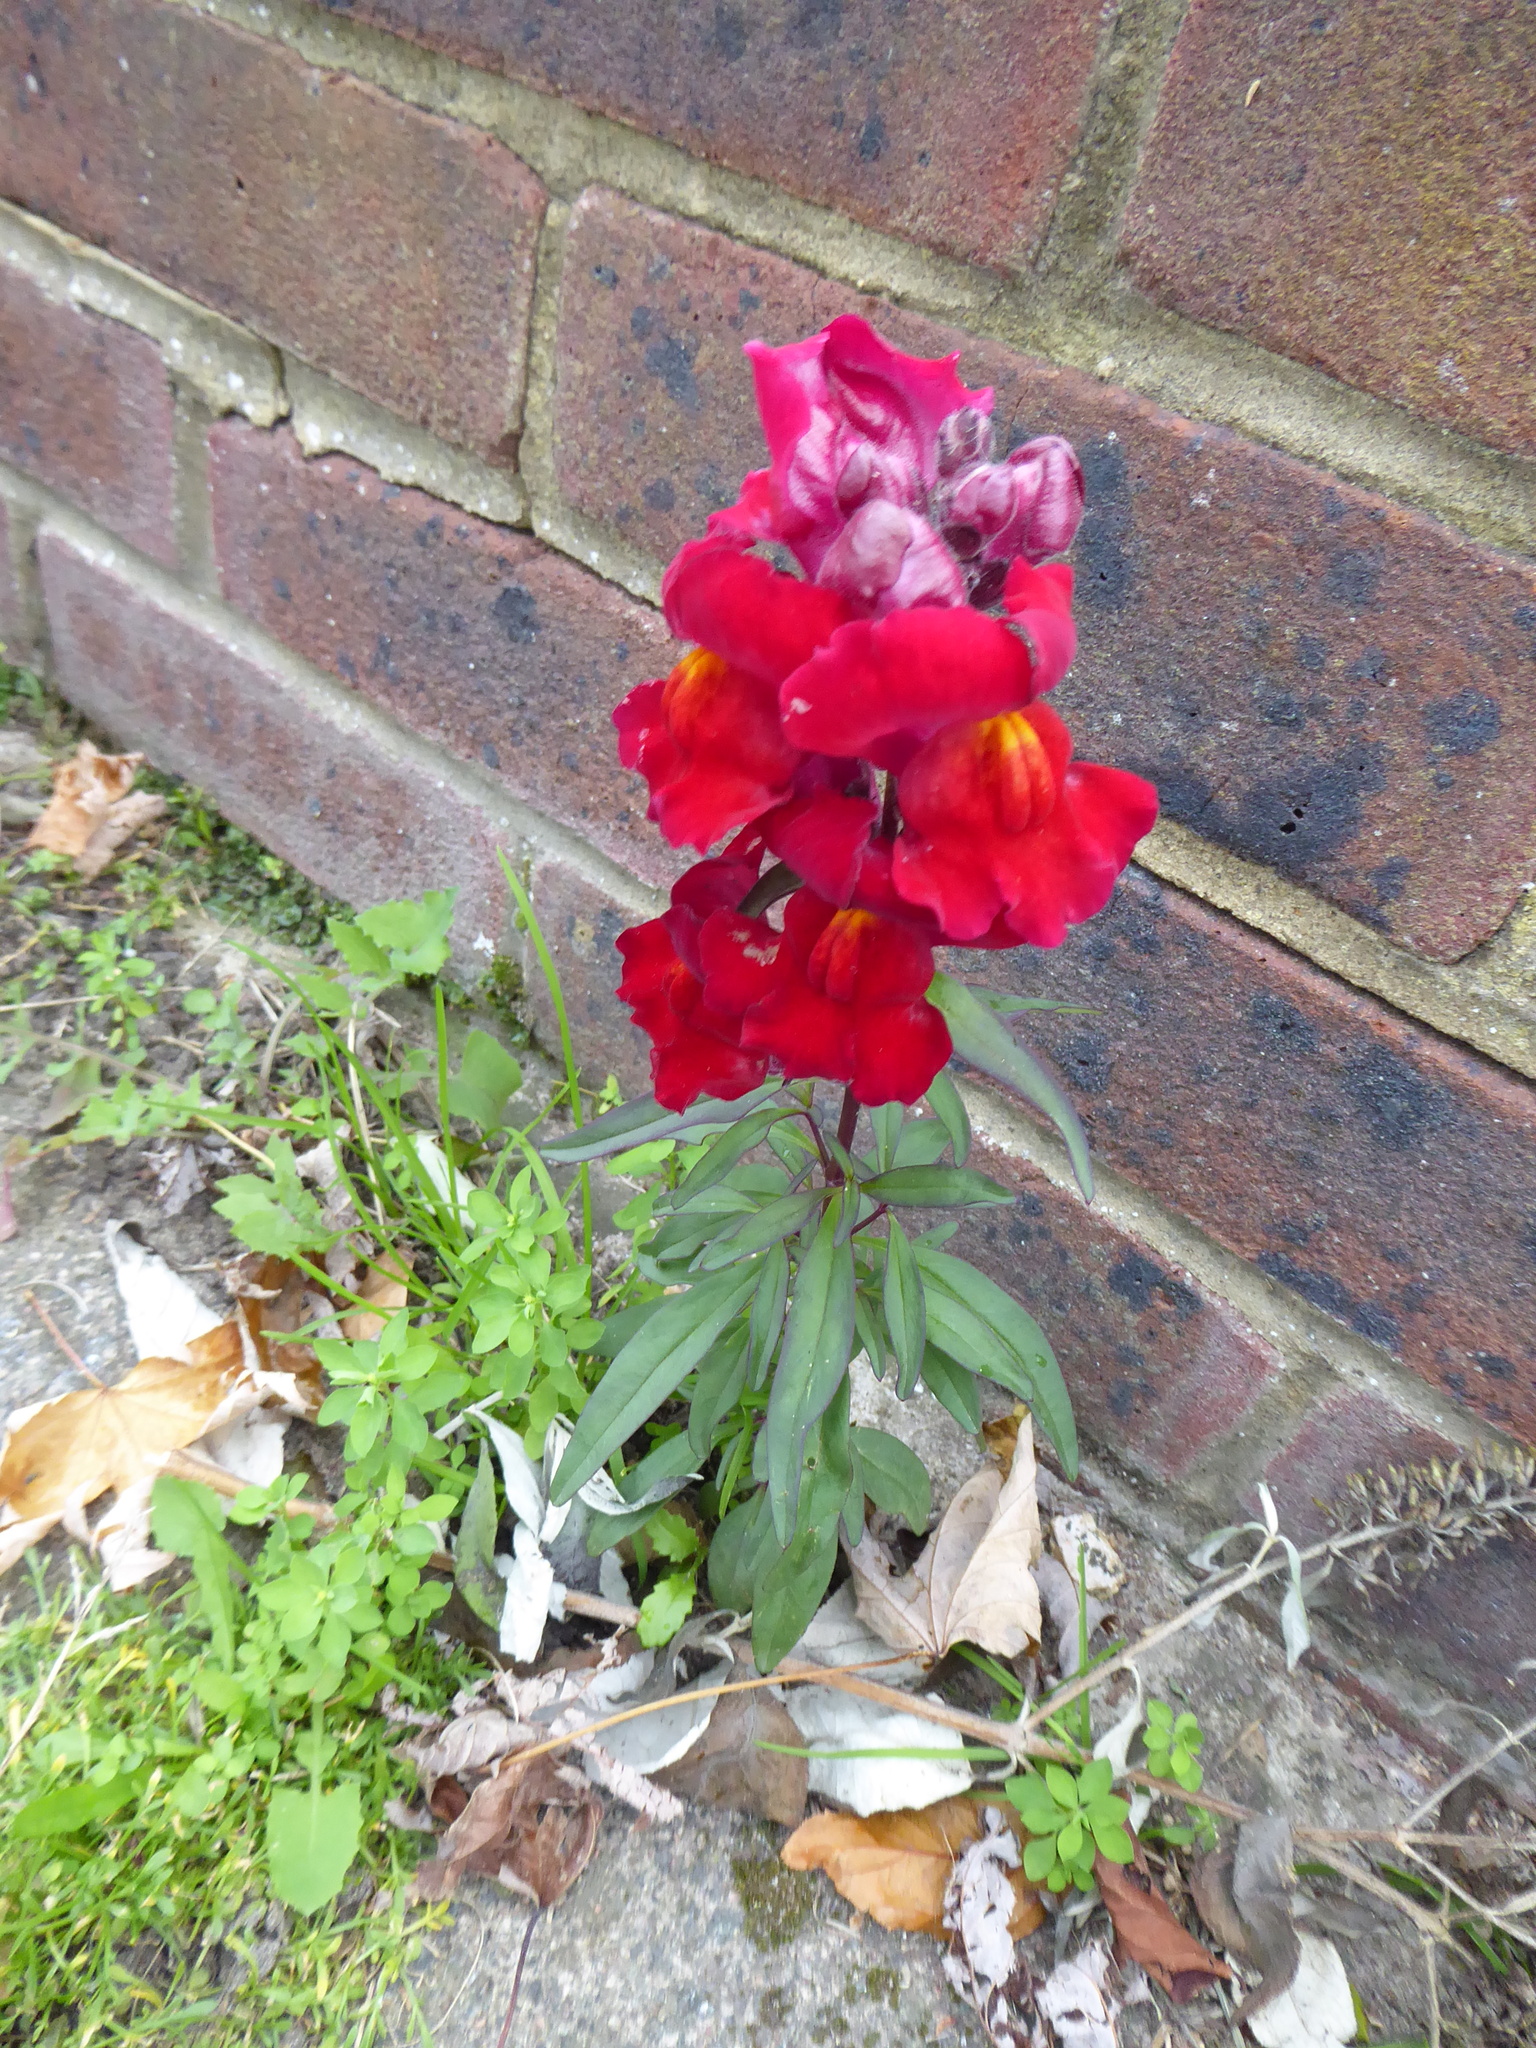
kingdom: Plantae
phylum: Tracheophyta
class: Magnoliopsida
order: Lamiales
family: Plantaginaceae
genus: Antirrhinum
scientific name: Antirrhinum majus
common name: Snapdragon
